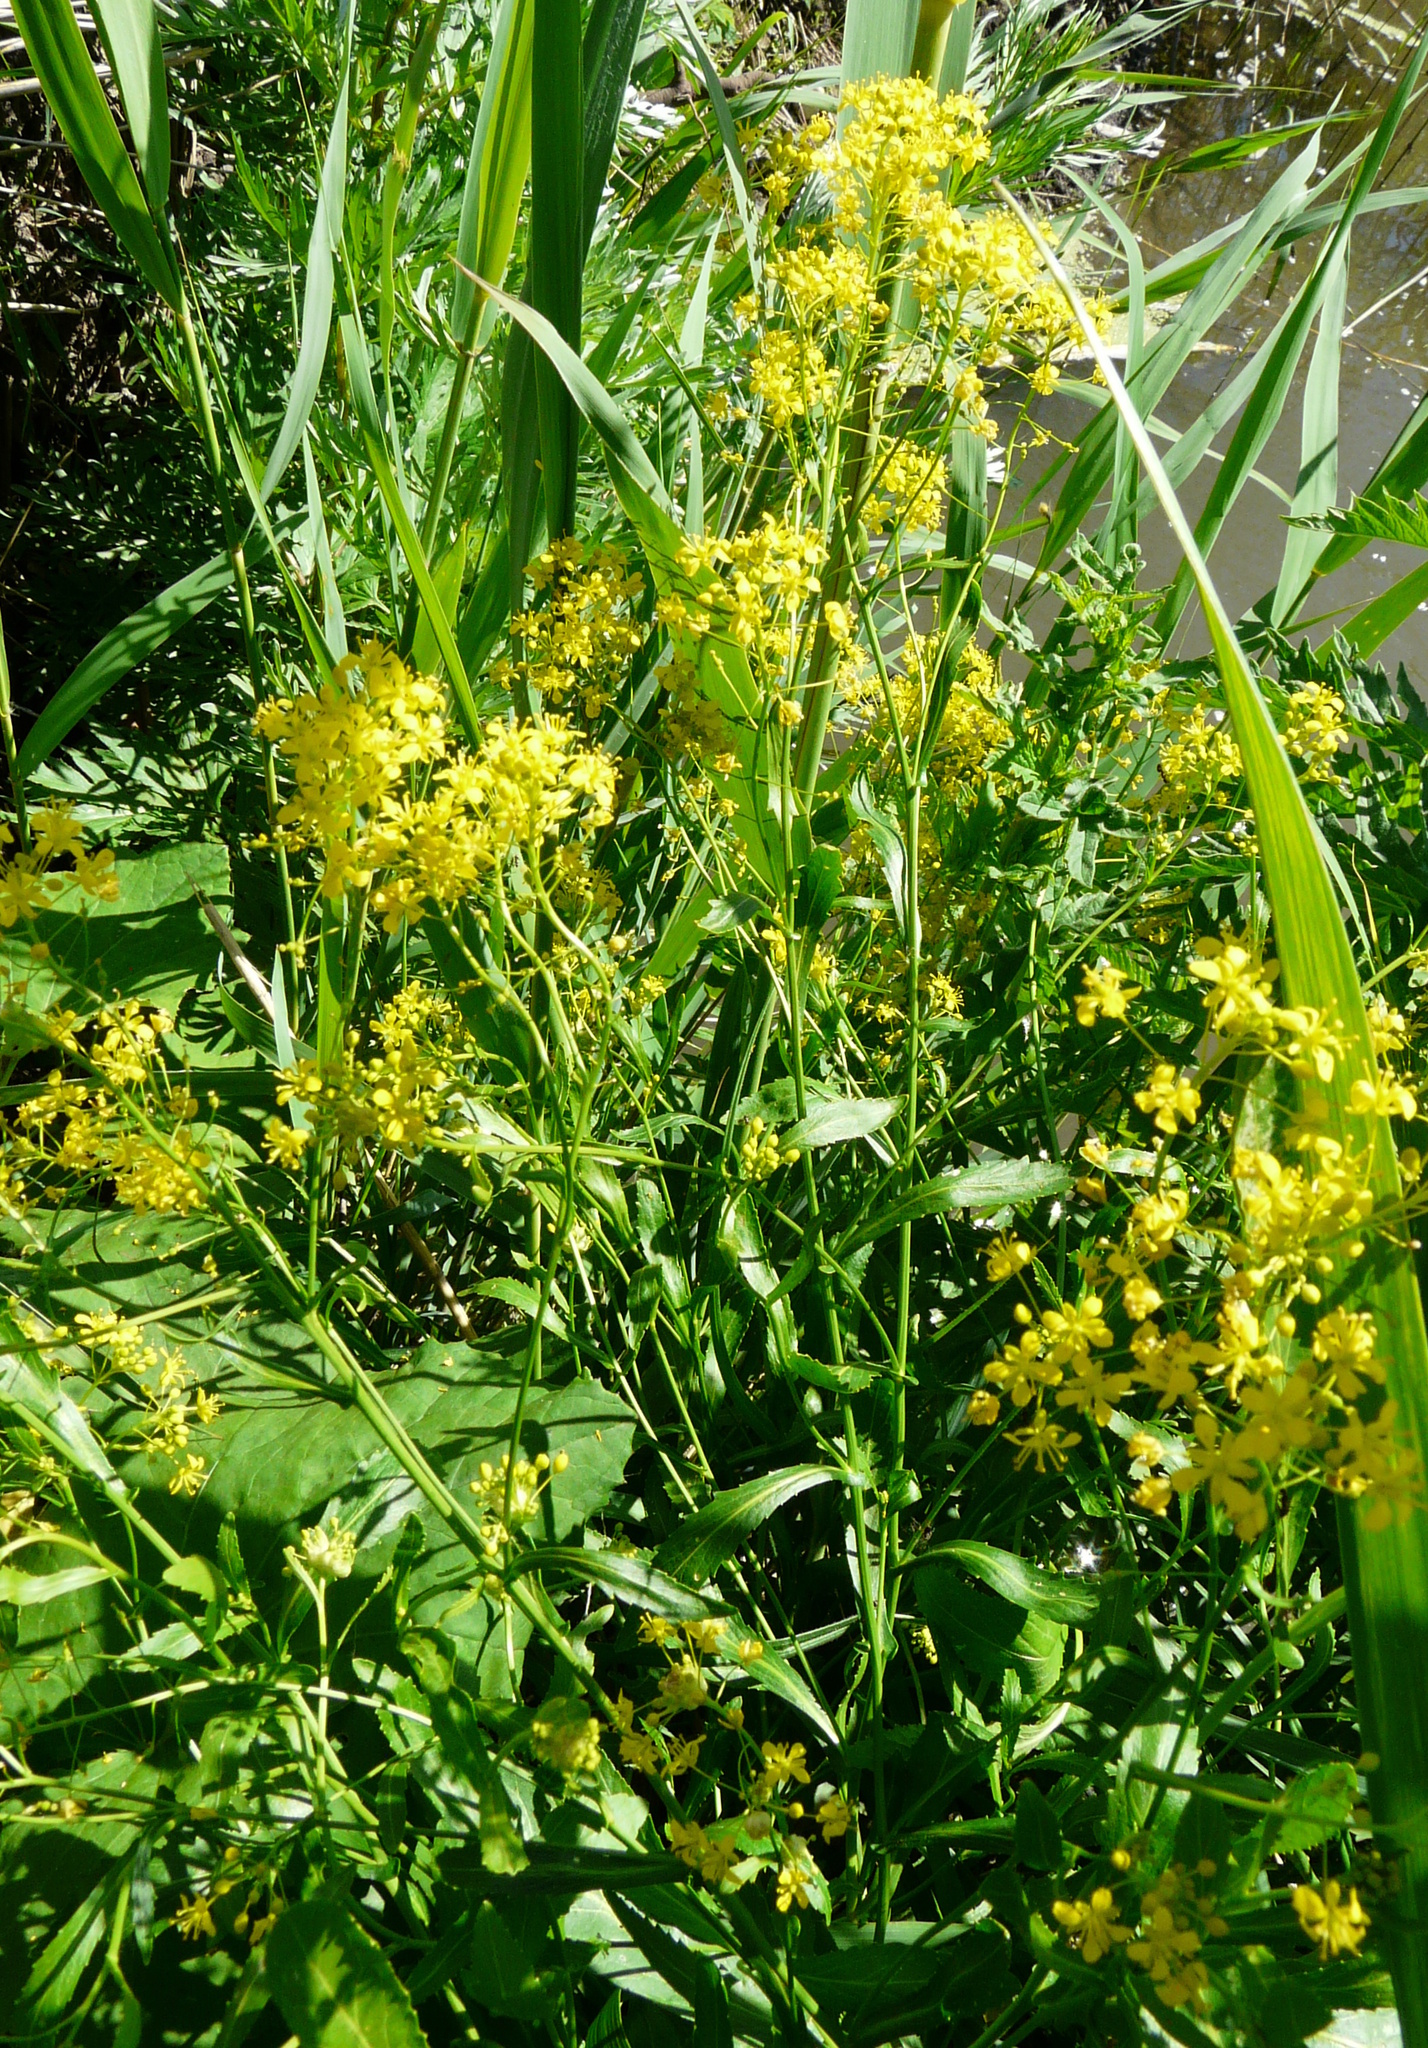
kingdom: Plantae
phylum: Tracheophyta
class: Magnoliopsida
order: Brassicales
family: Brassicaceae
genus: Rorippa
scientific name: Rorippa austriaca
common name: Austrian yellow-cress
